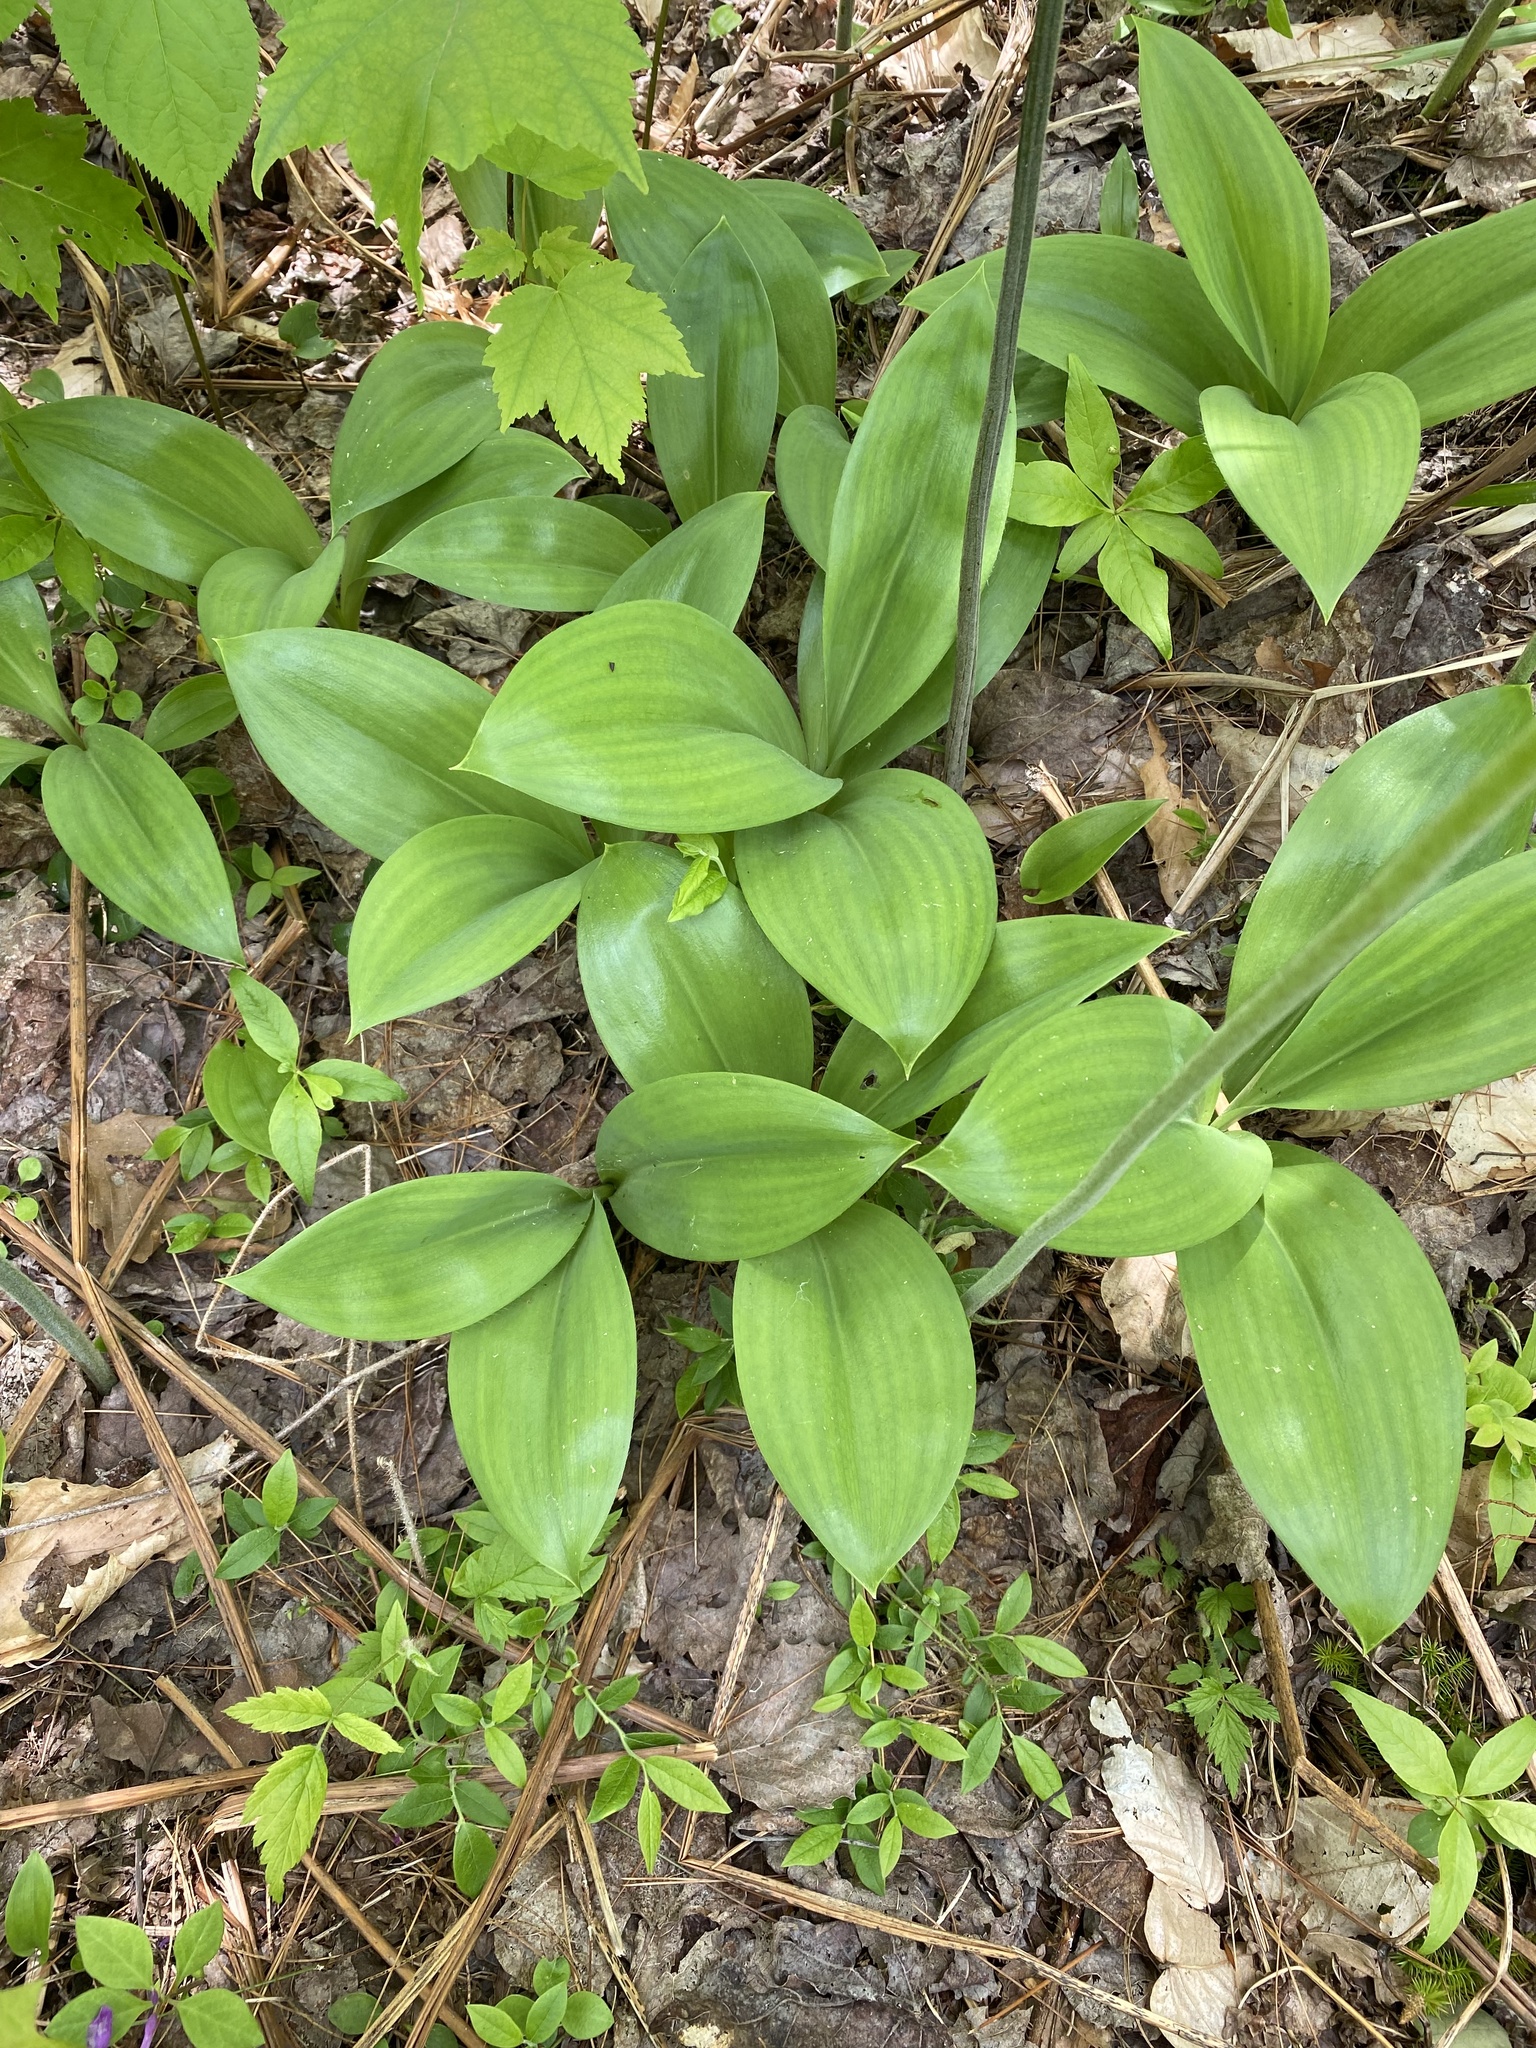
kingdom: Plantae
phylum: Tracheophyta
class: Liliopsida
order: Liliales
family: Liliaceae
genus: Clintonia
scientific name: Clintonia borealis
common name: Yellow clintonia
